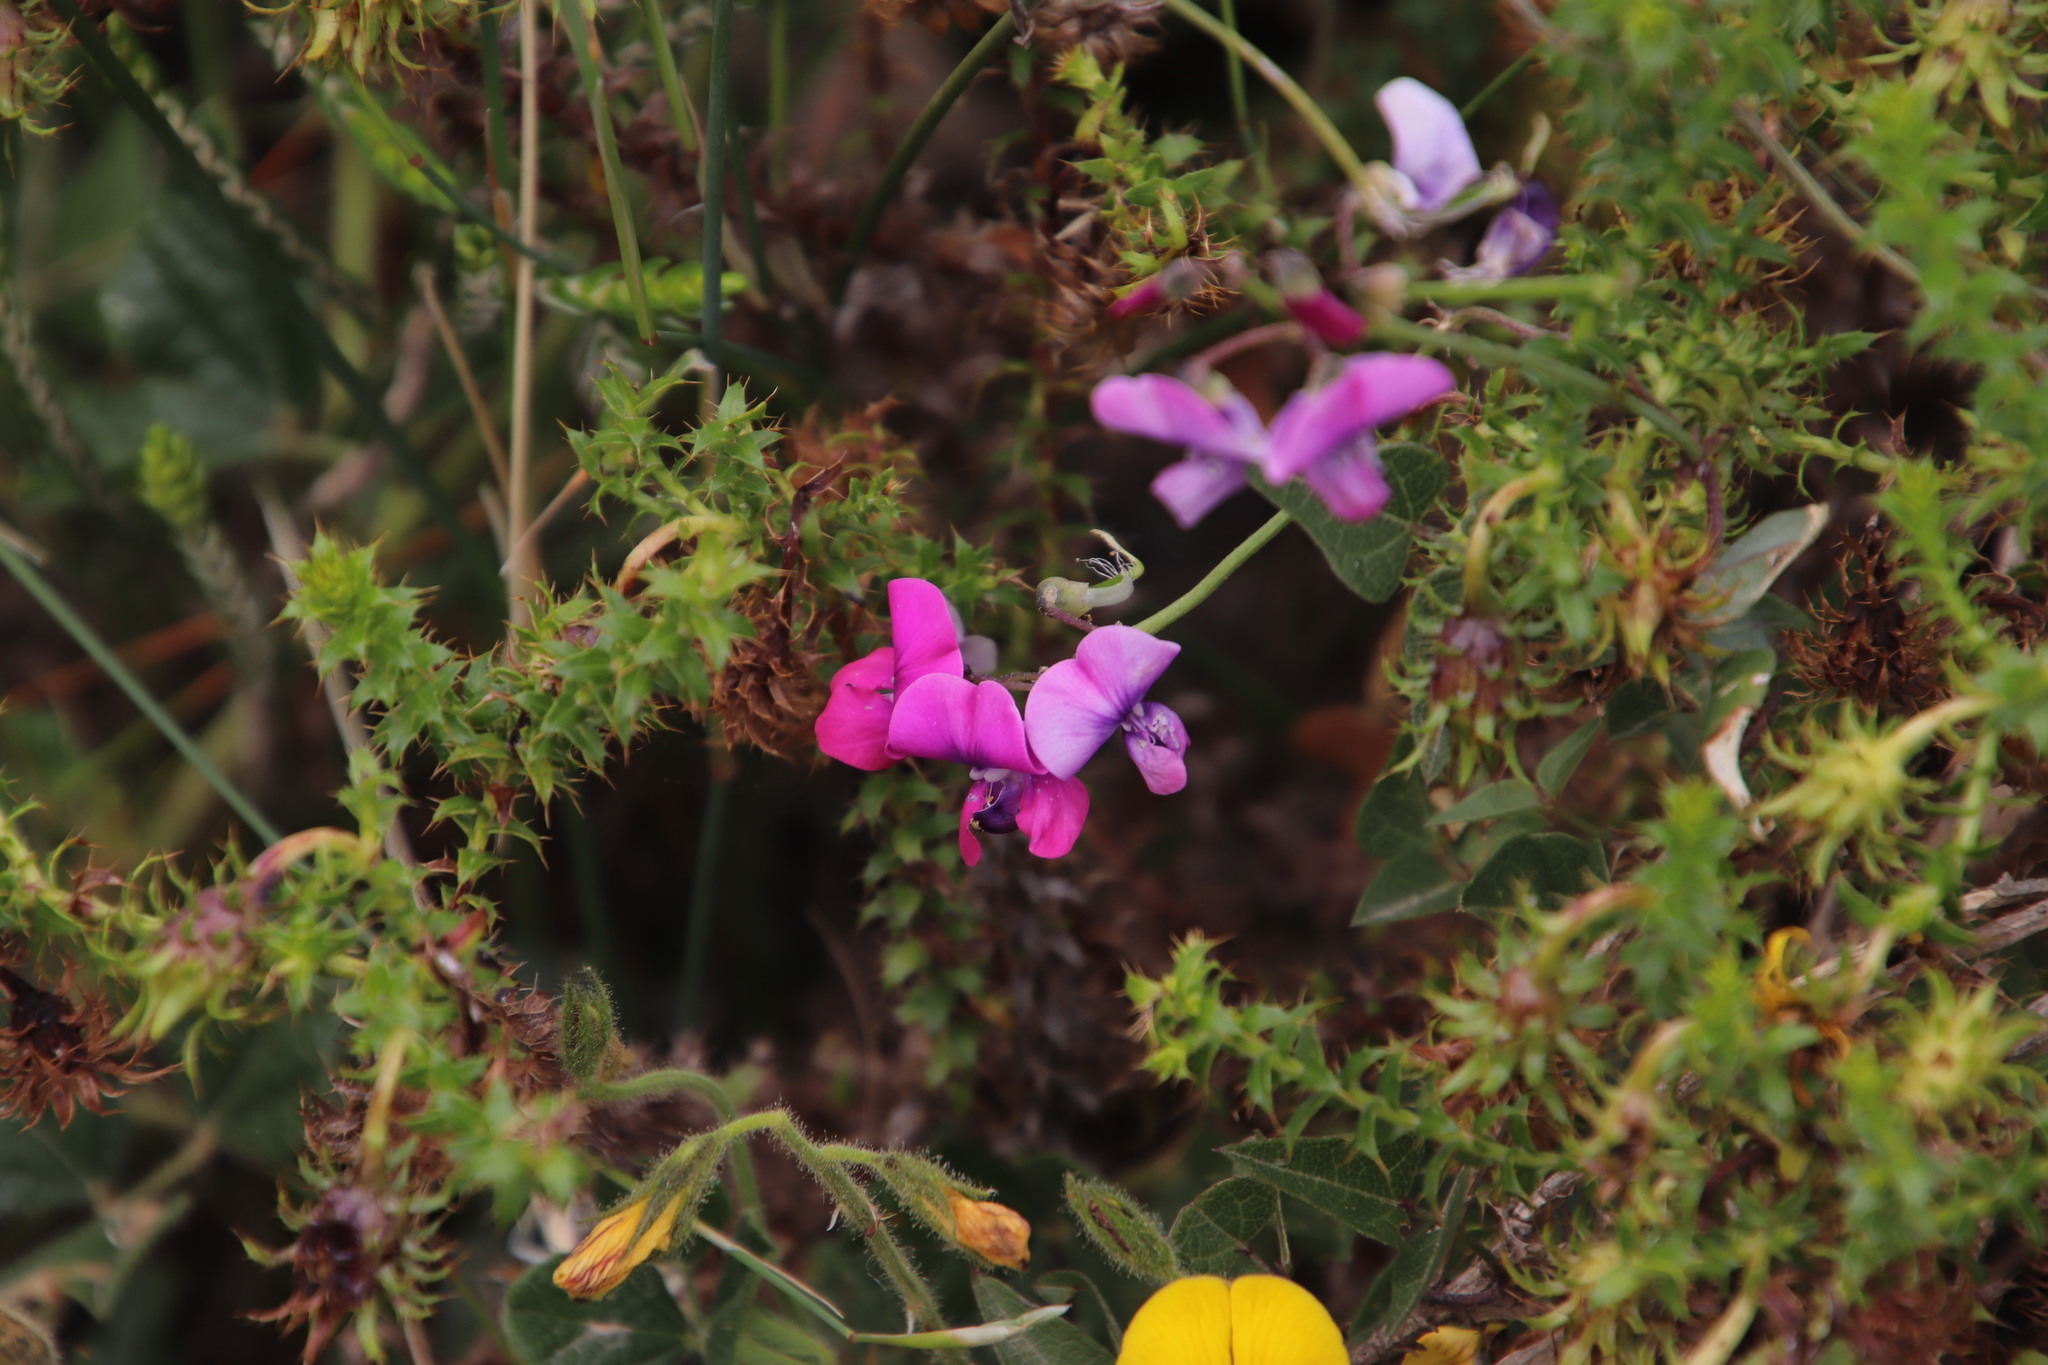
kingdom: Plantae
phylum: Tracheophyta
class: Magnoliopsida
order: Fabales
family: Fabaceae
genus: Dipogon
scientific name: Dipogon lignosus
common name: Okie bean
